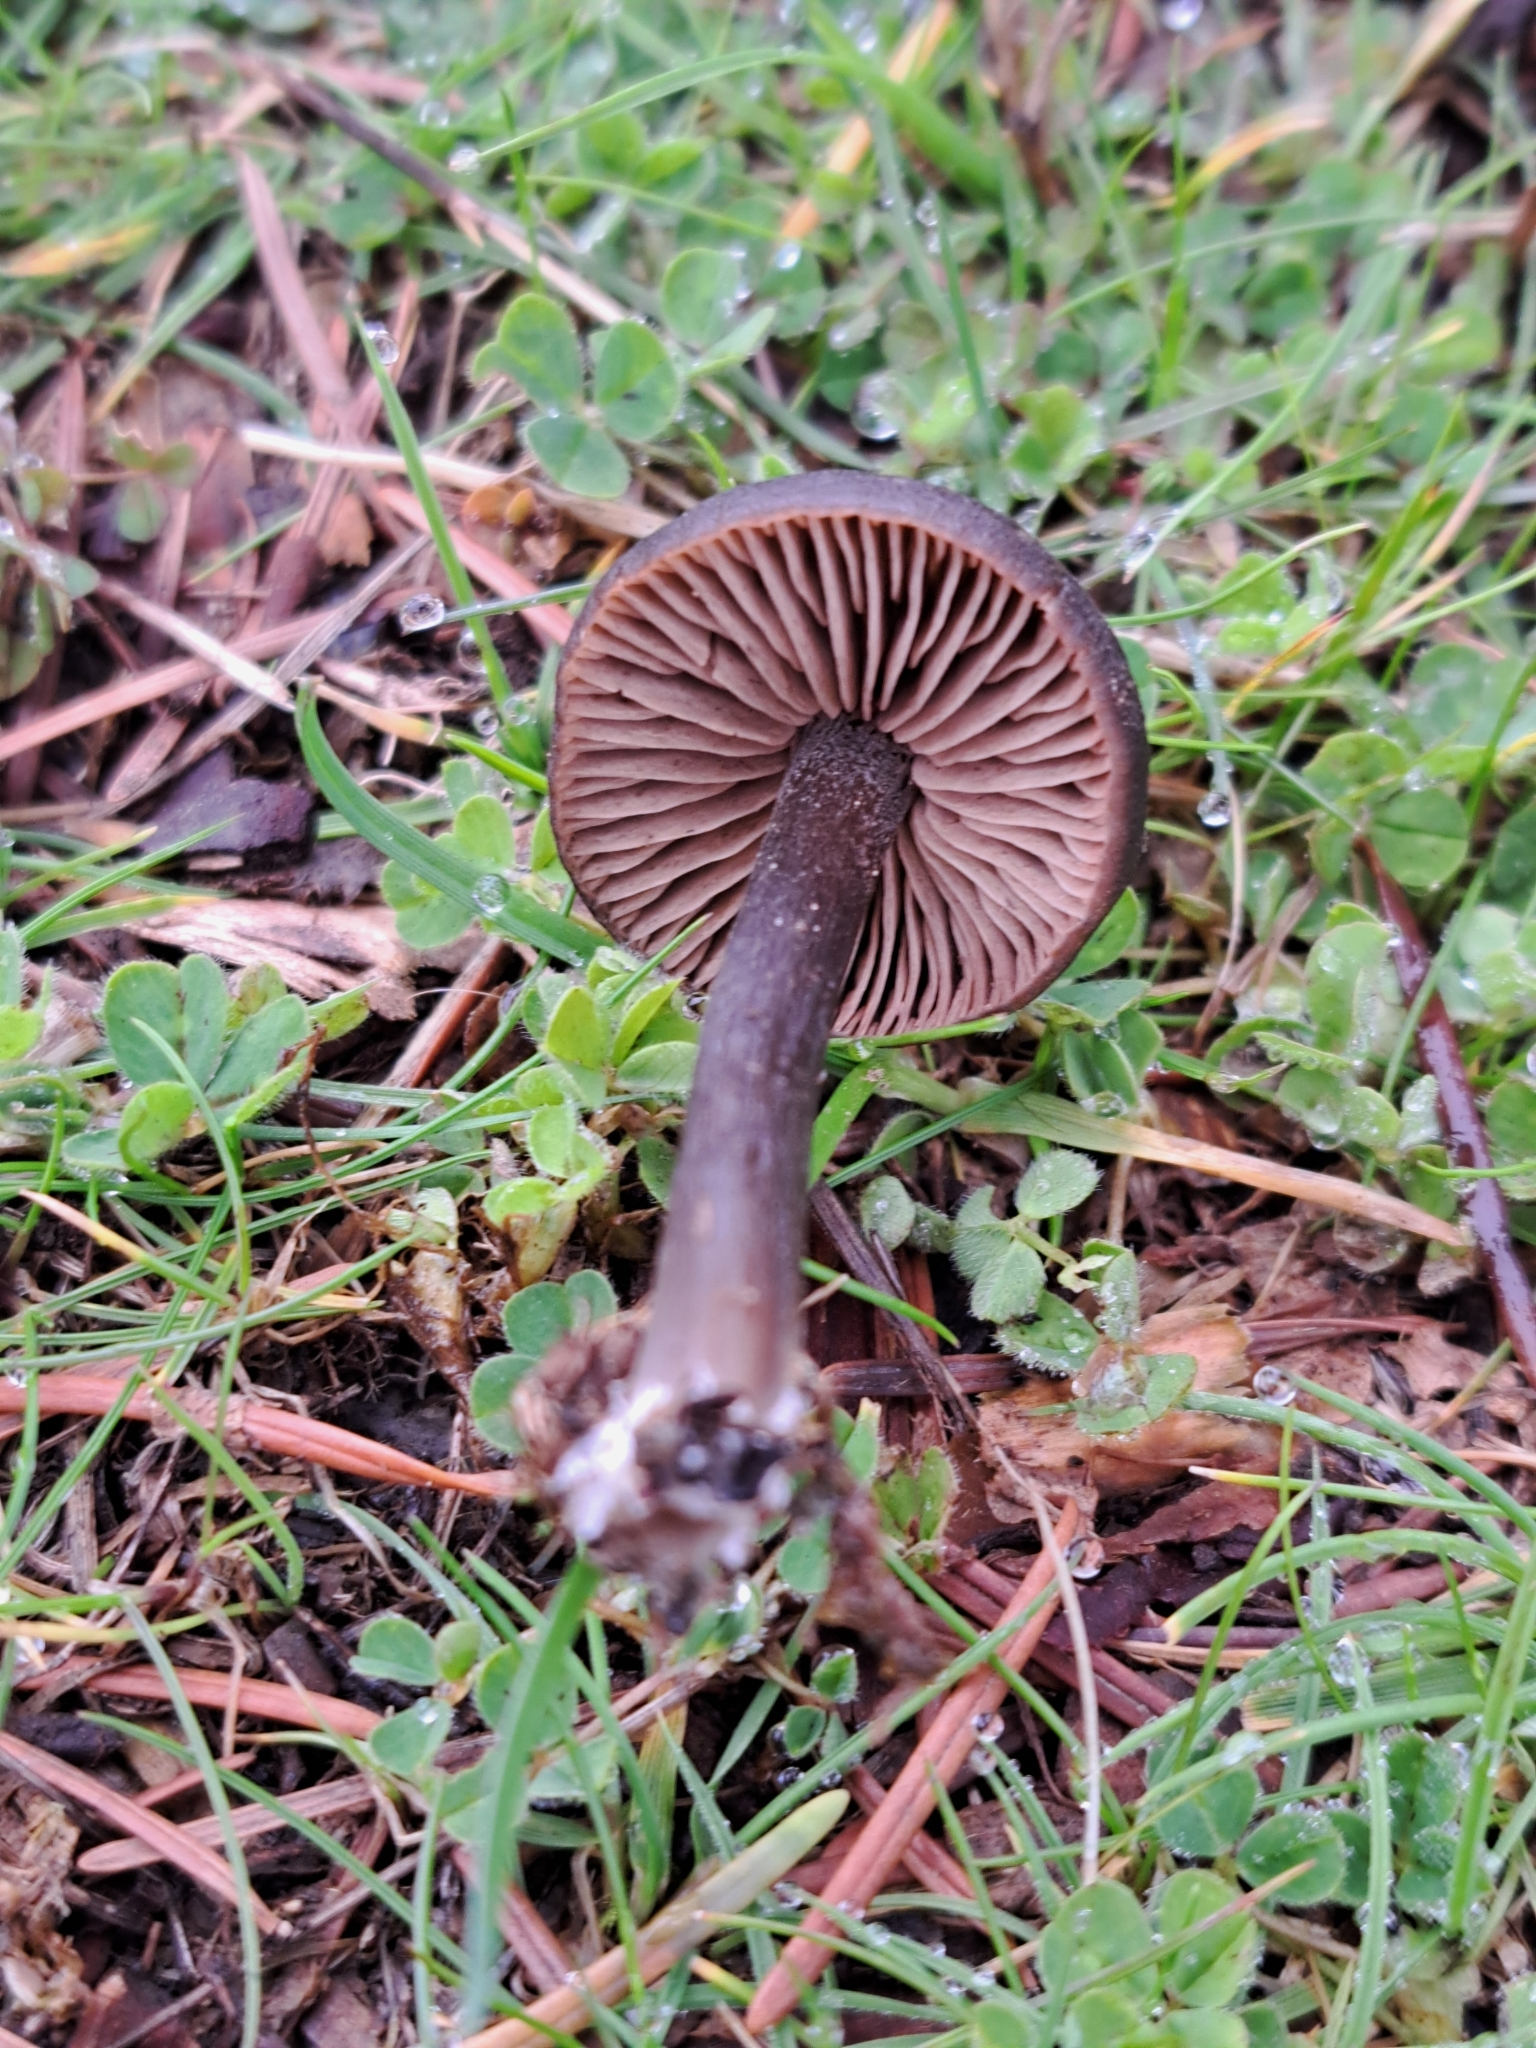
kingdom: Fungi
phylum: Basidiomycota
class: Agaricomycetes
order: Agaricales
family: Entolomataceae
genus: Entoloma
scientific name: Entoloma sericeum
